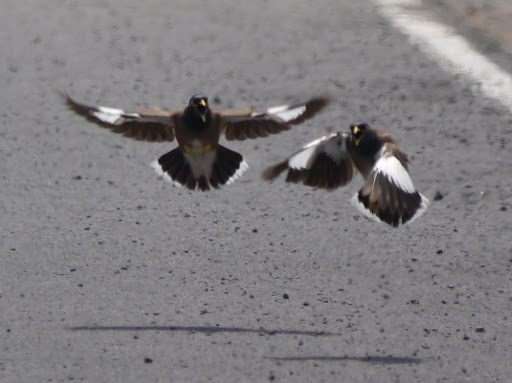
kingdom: Animalia
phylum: Chordata
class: Aves
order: Passeriformes
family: Sturnidae
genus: Acridotheres
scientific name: Acridotheres tristis
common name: Common myna
